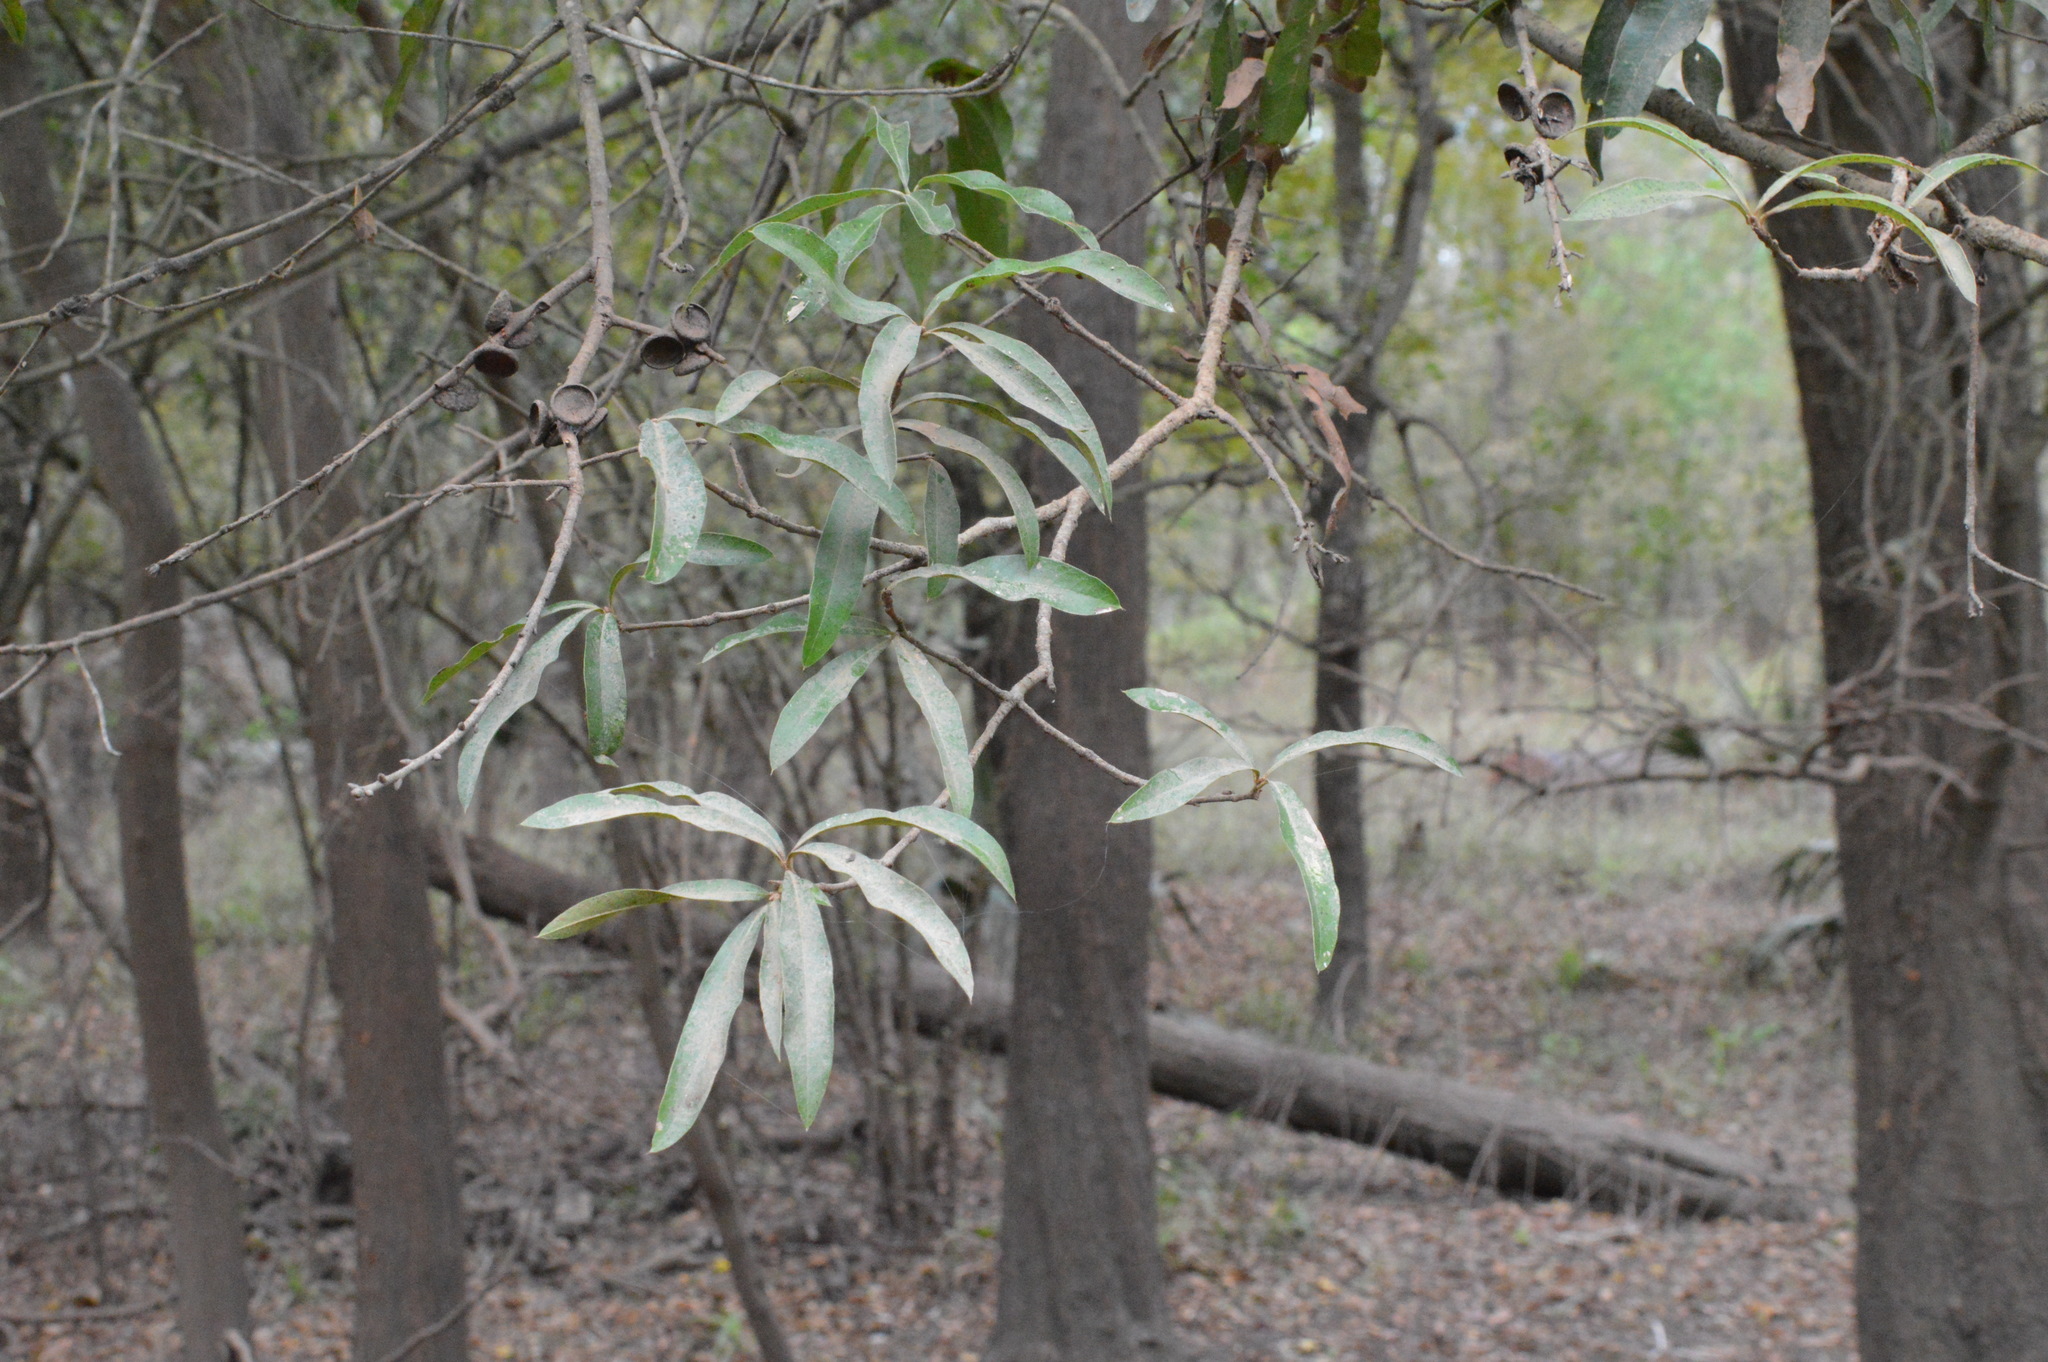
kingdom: Plantae
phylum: Tracheophyta
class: Magnoliopsida
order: Fagales
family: Fagaceae
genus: Quercus
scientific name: Quercus phellos
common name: Willow oak
